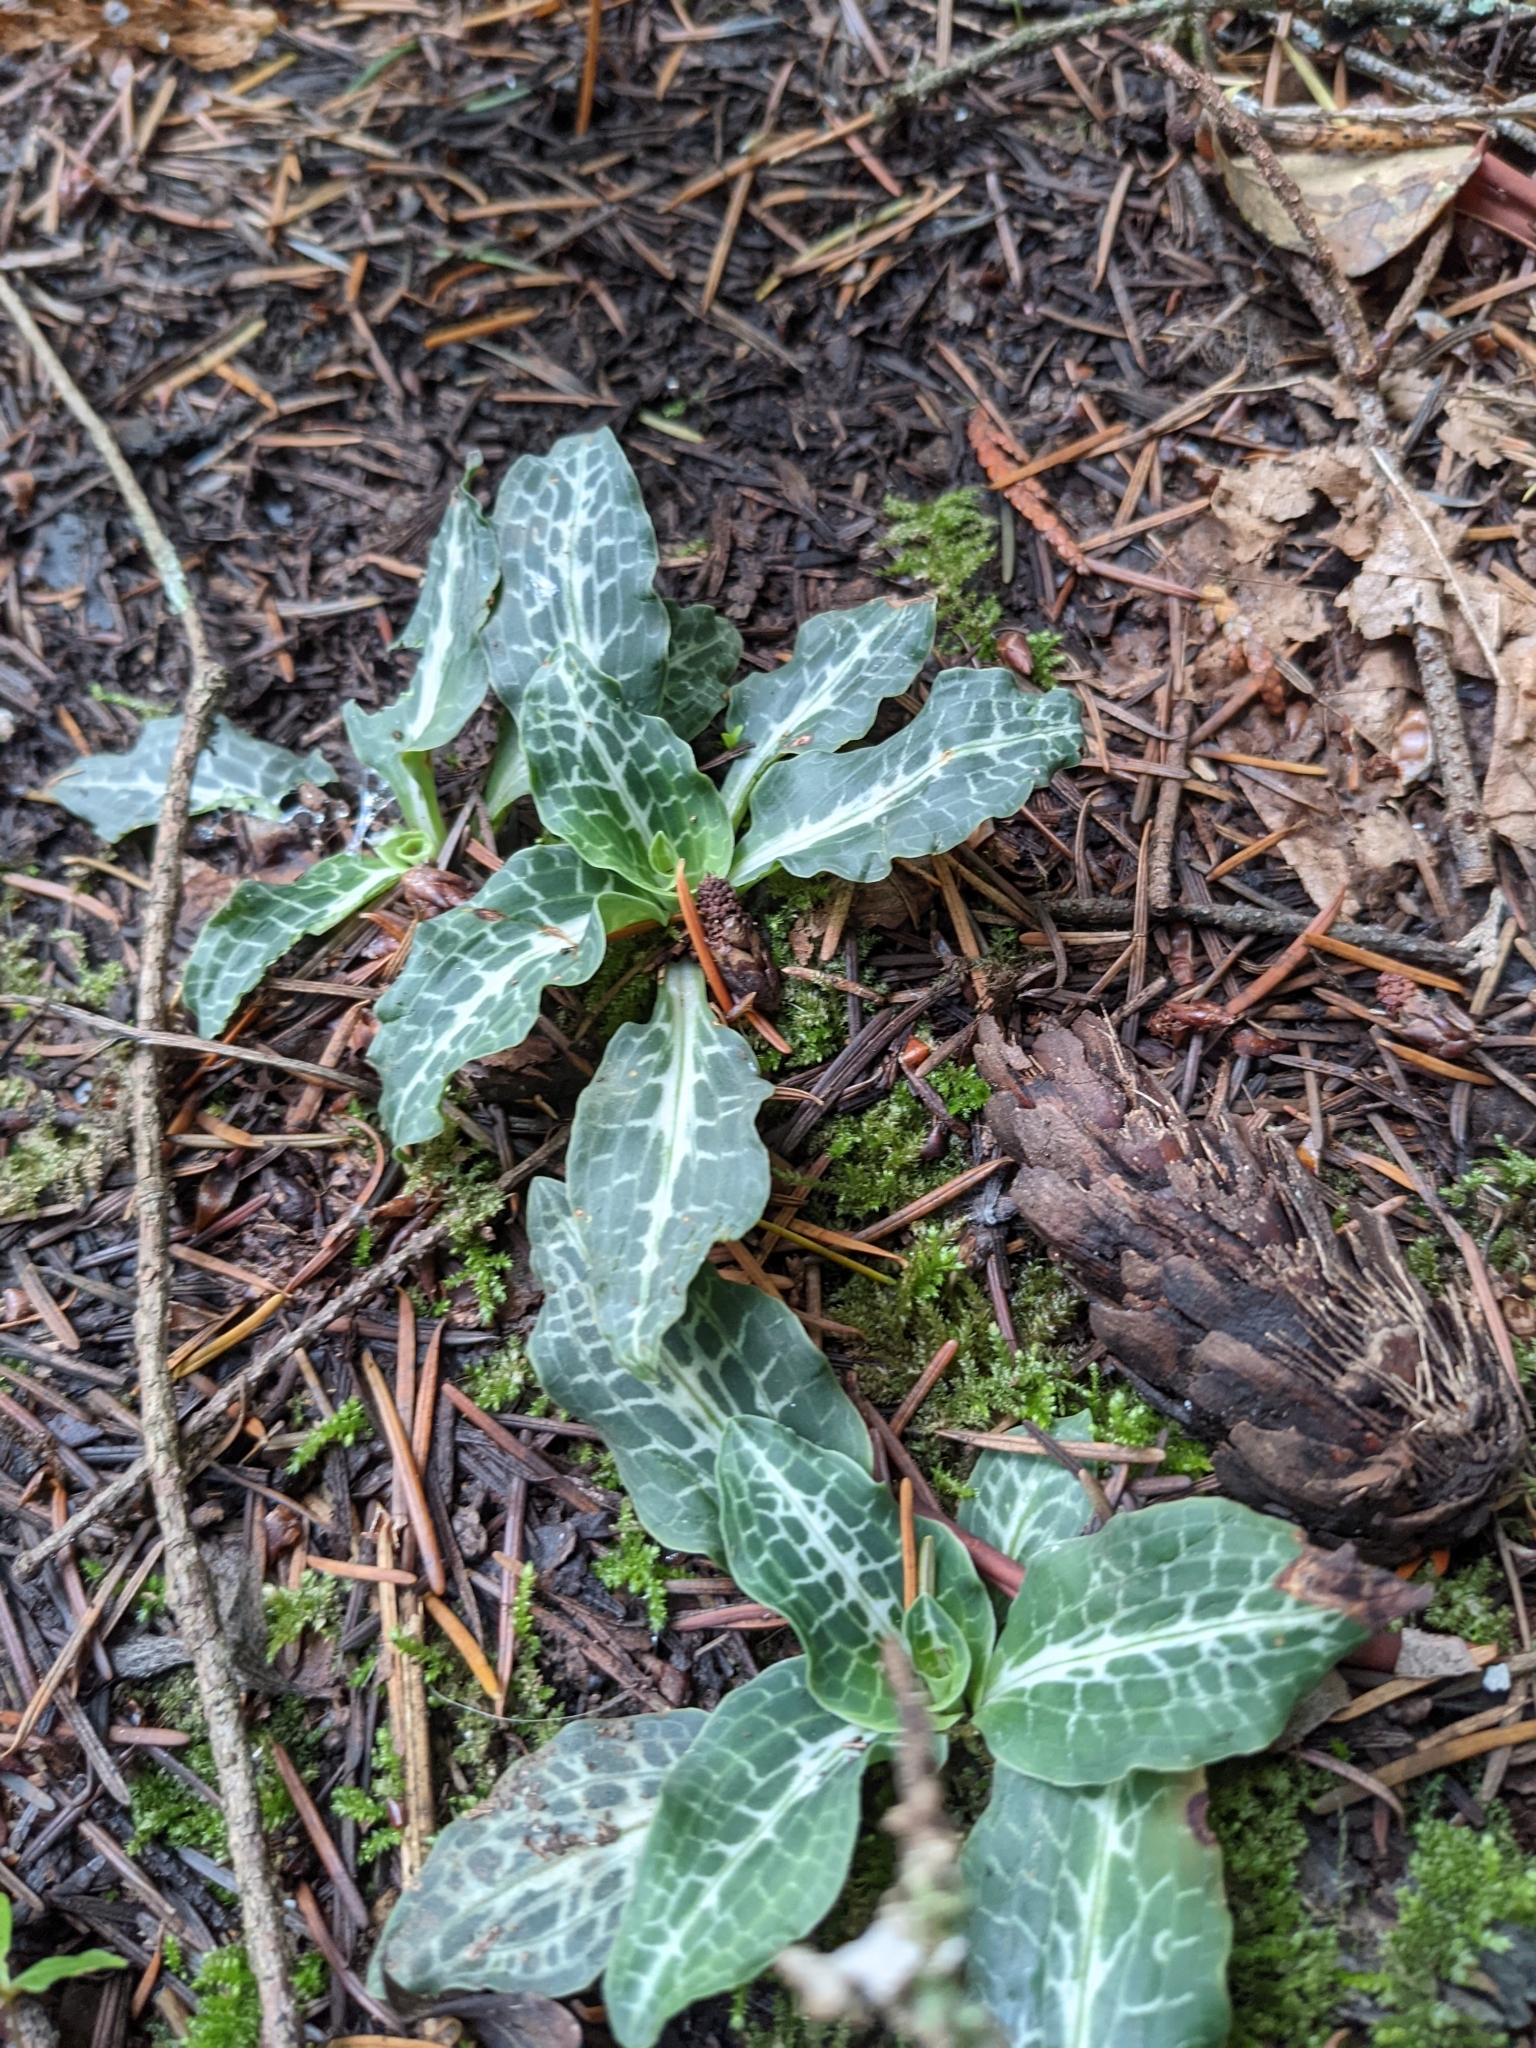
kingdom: Plantae
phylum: Tracheophyta
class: Liliopsida
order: Asparagales
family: Orchidaceae
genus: Goodyera
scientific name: Goodyera oblongifolia
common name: Giant rattlesnake-plantain
